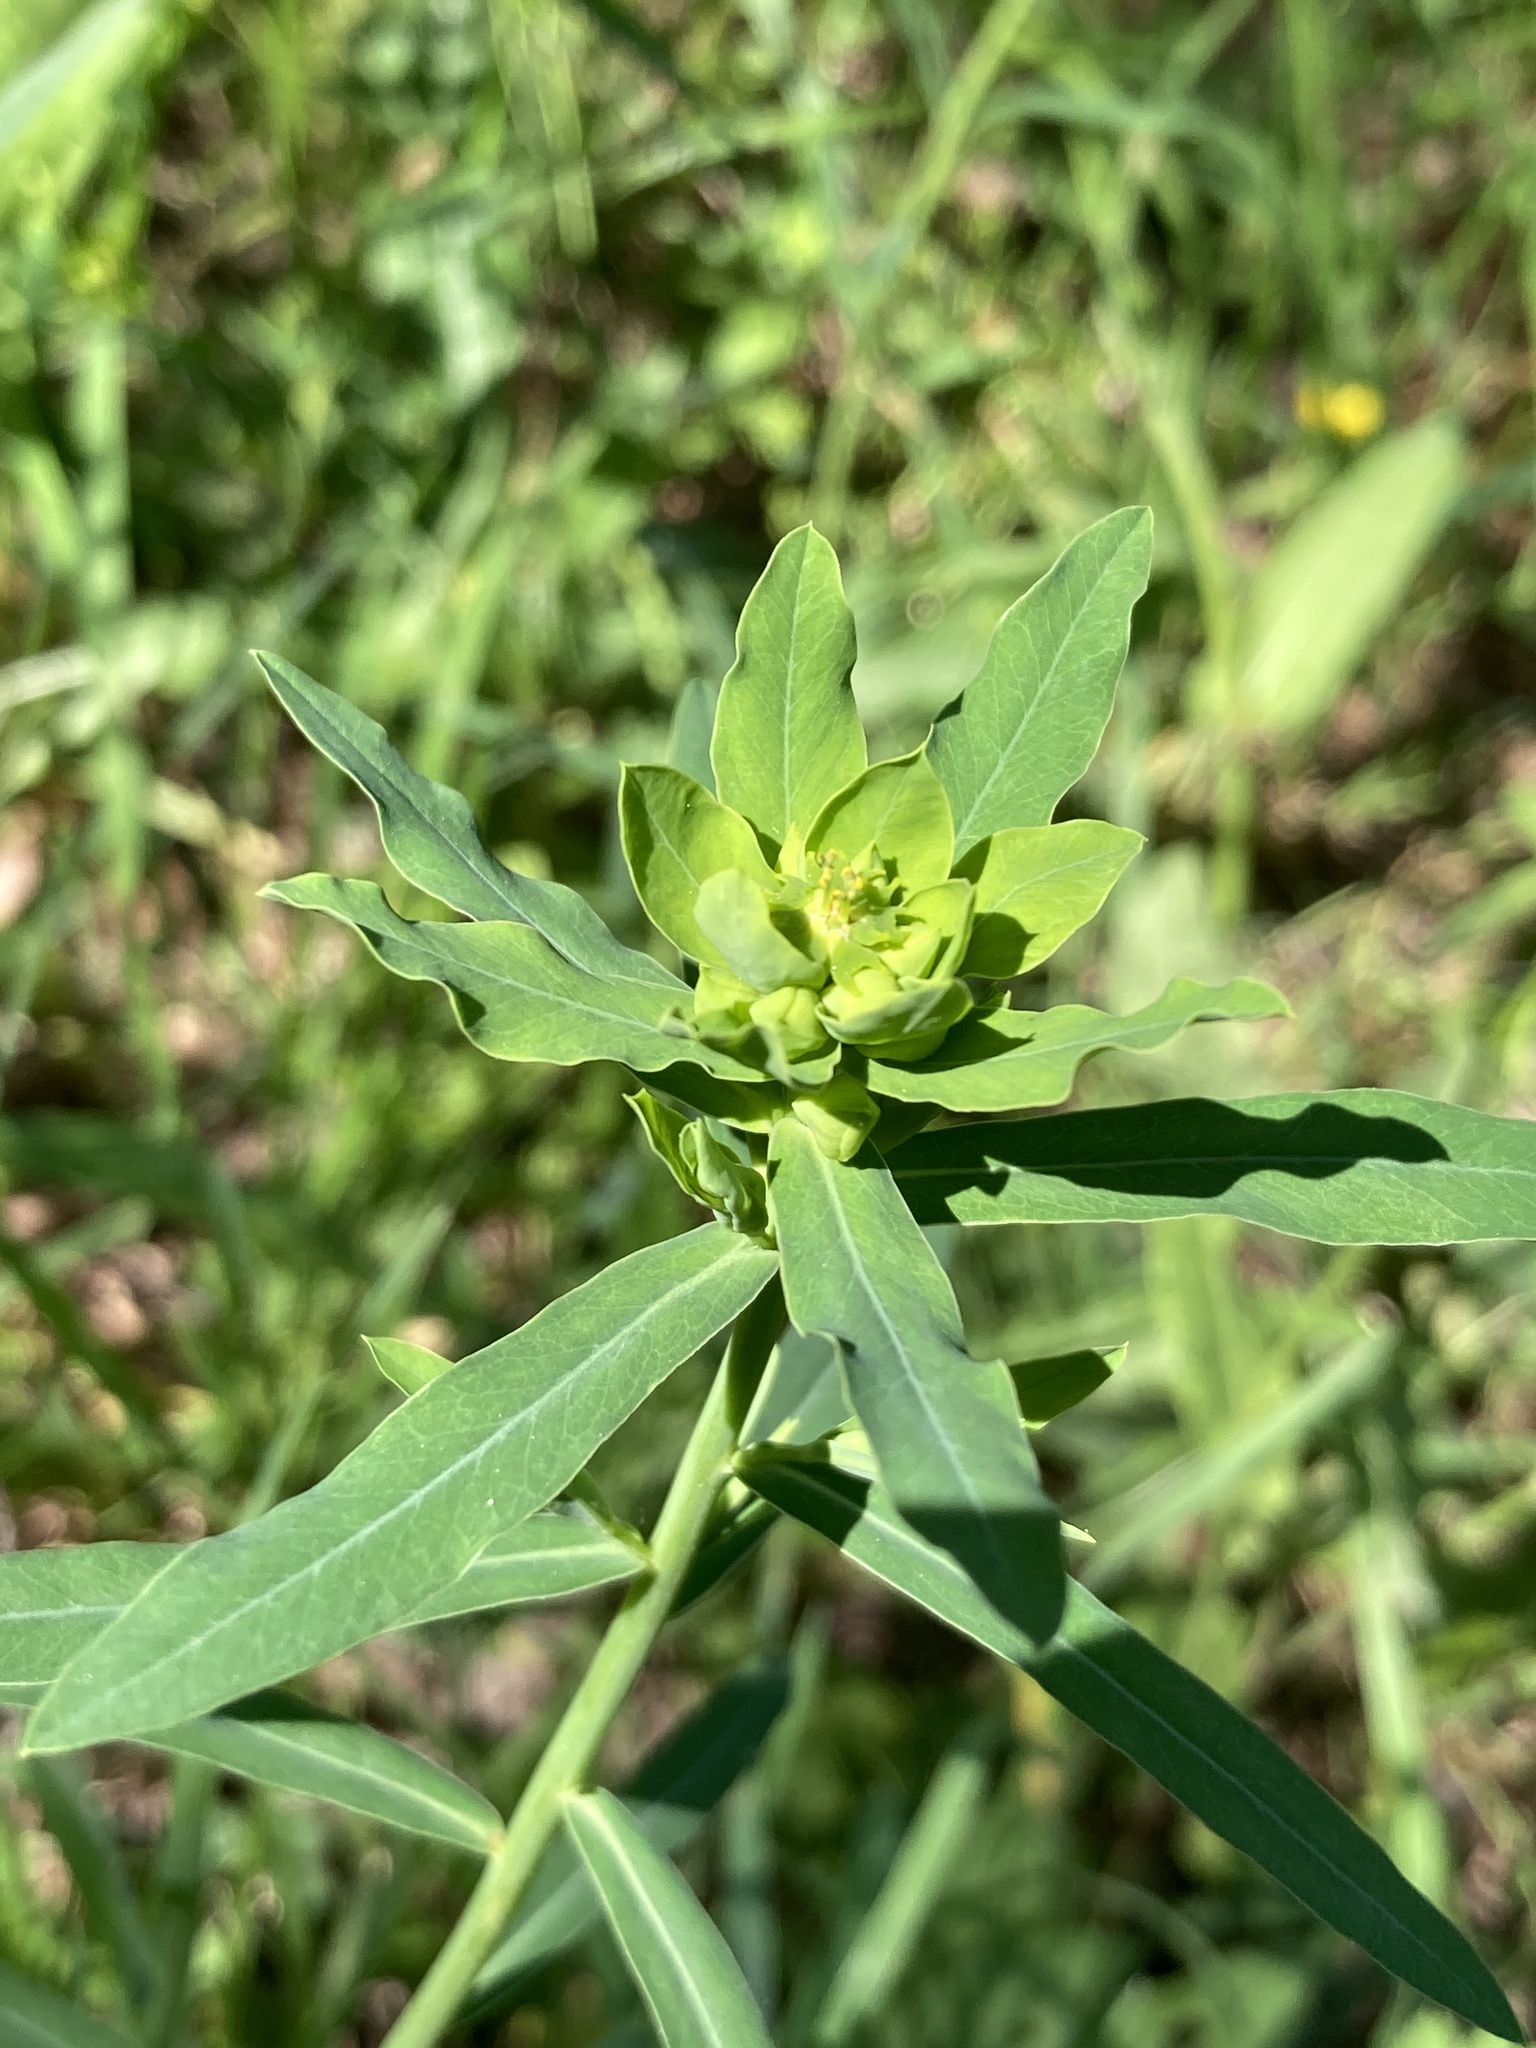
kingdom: Plantae
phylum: Tracheophyta
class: Magnoliopsida
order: Malpighiales
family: Euphorbiaceae
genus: Euphorbia
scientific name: Euphorbia virgata
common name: Leafy spurge
